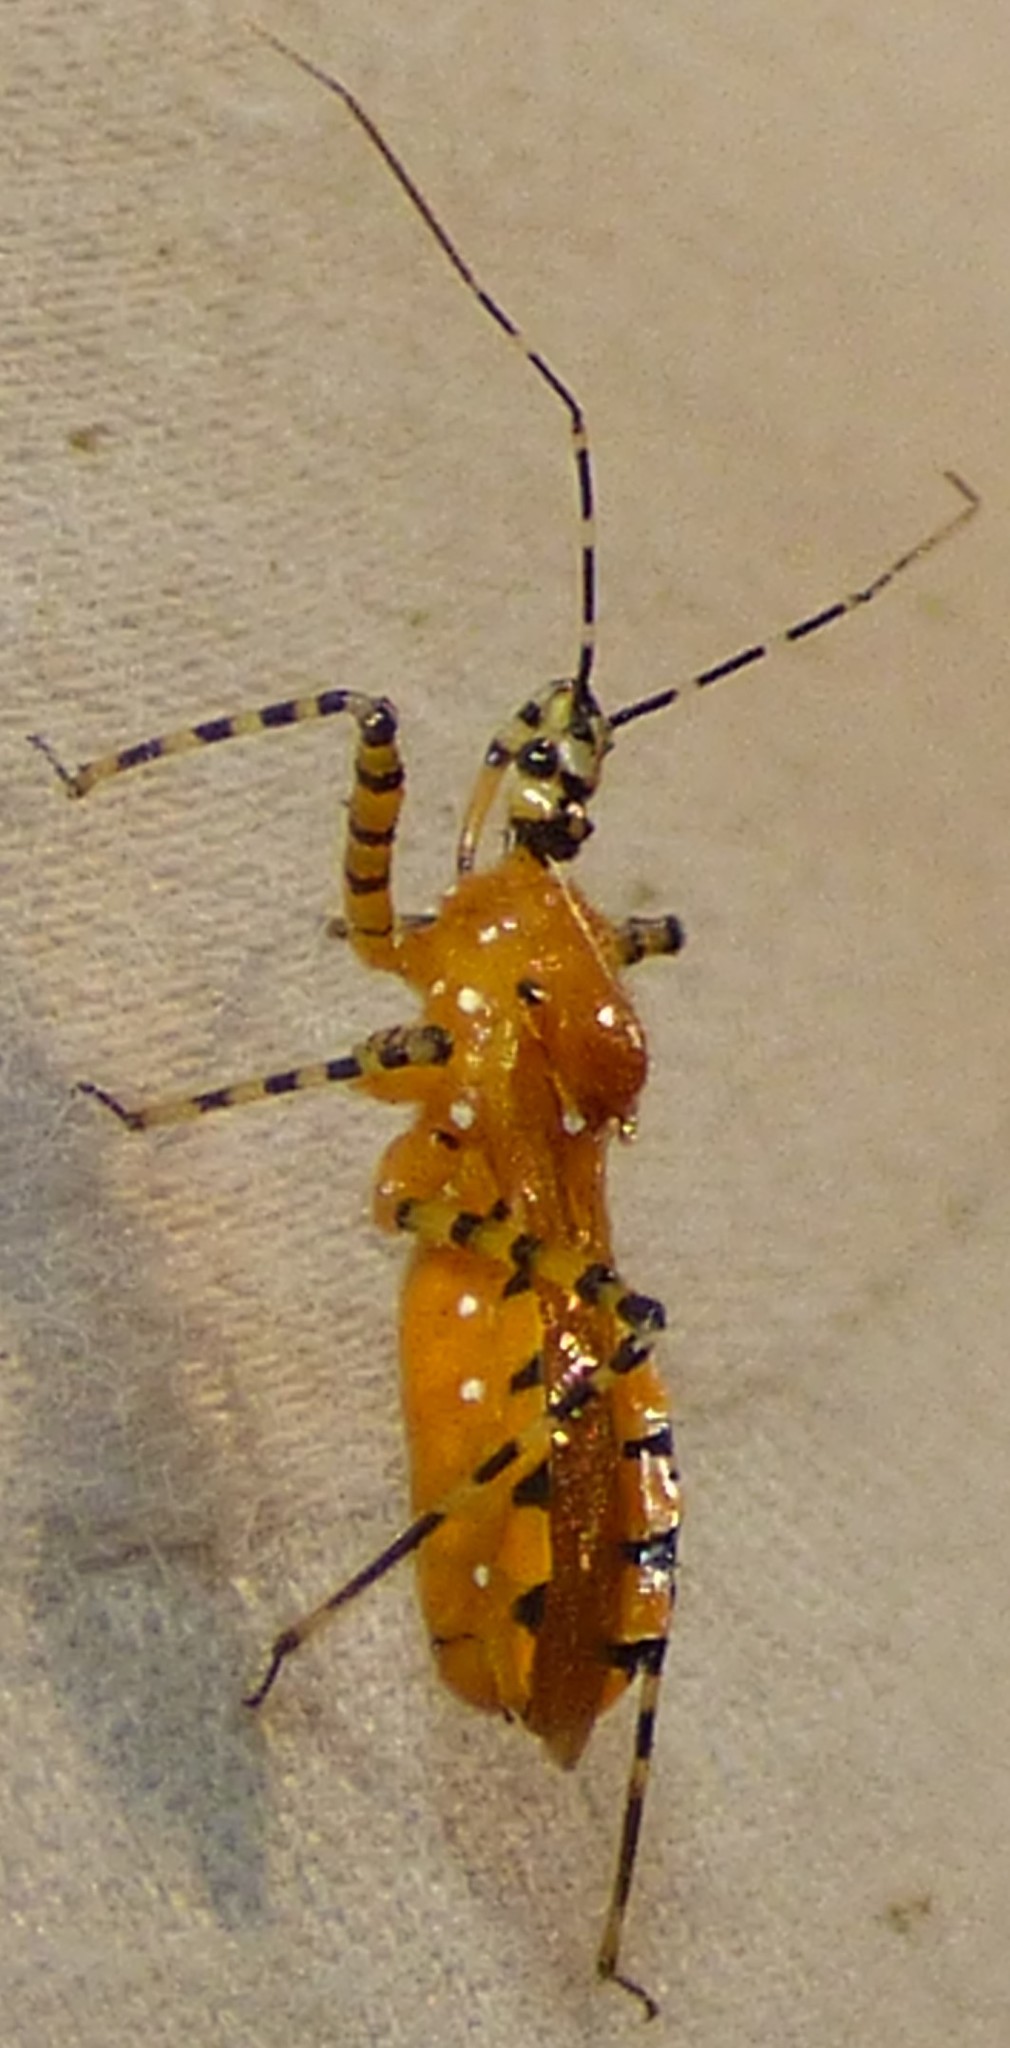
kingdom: Animalia
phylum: Arthropoda
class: Insecta
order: Hemiptera
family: Reduviidae
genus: Pselliopus
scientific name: Pselliopus barberi
